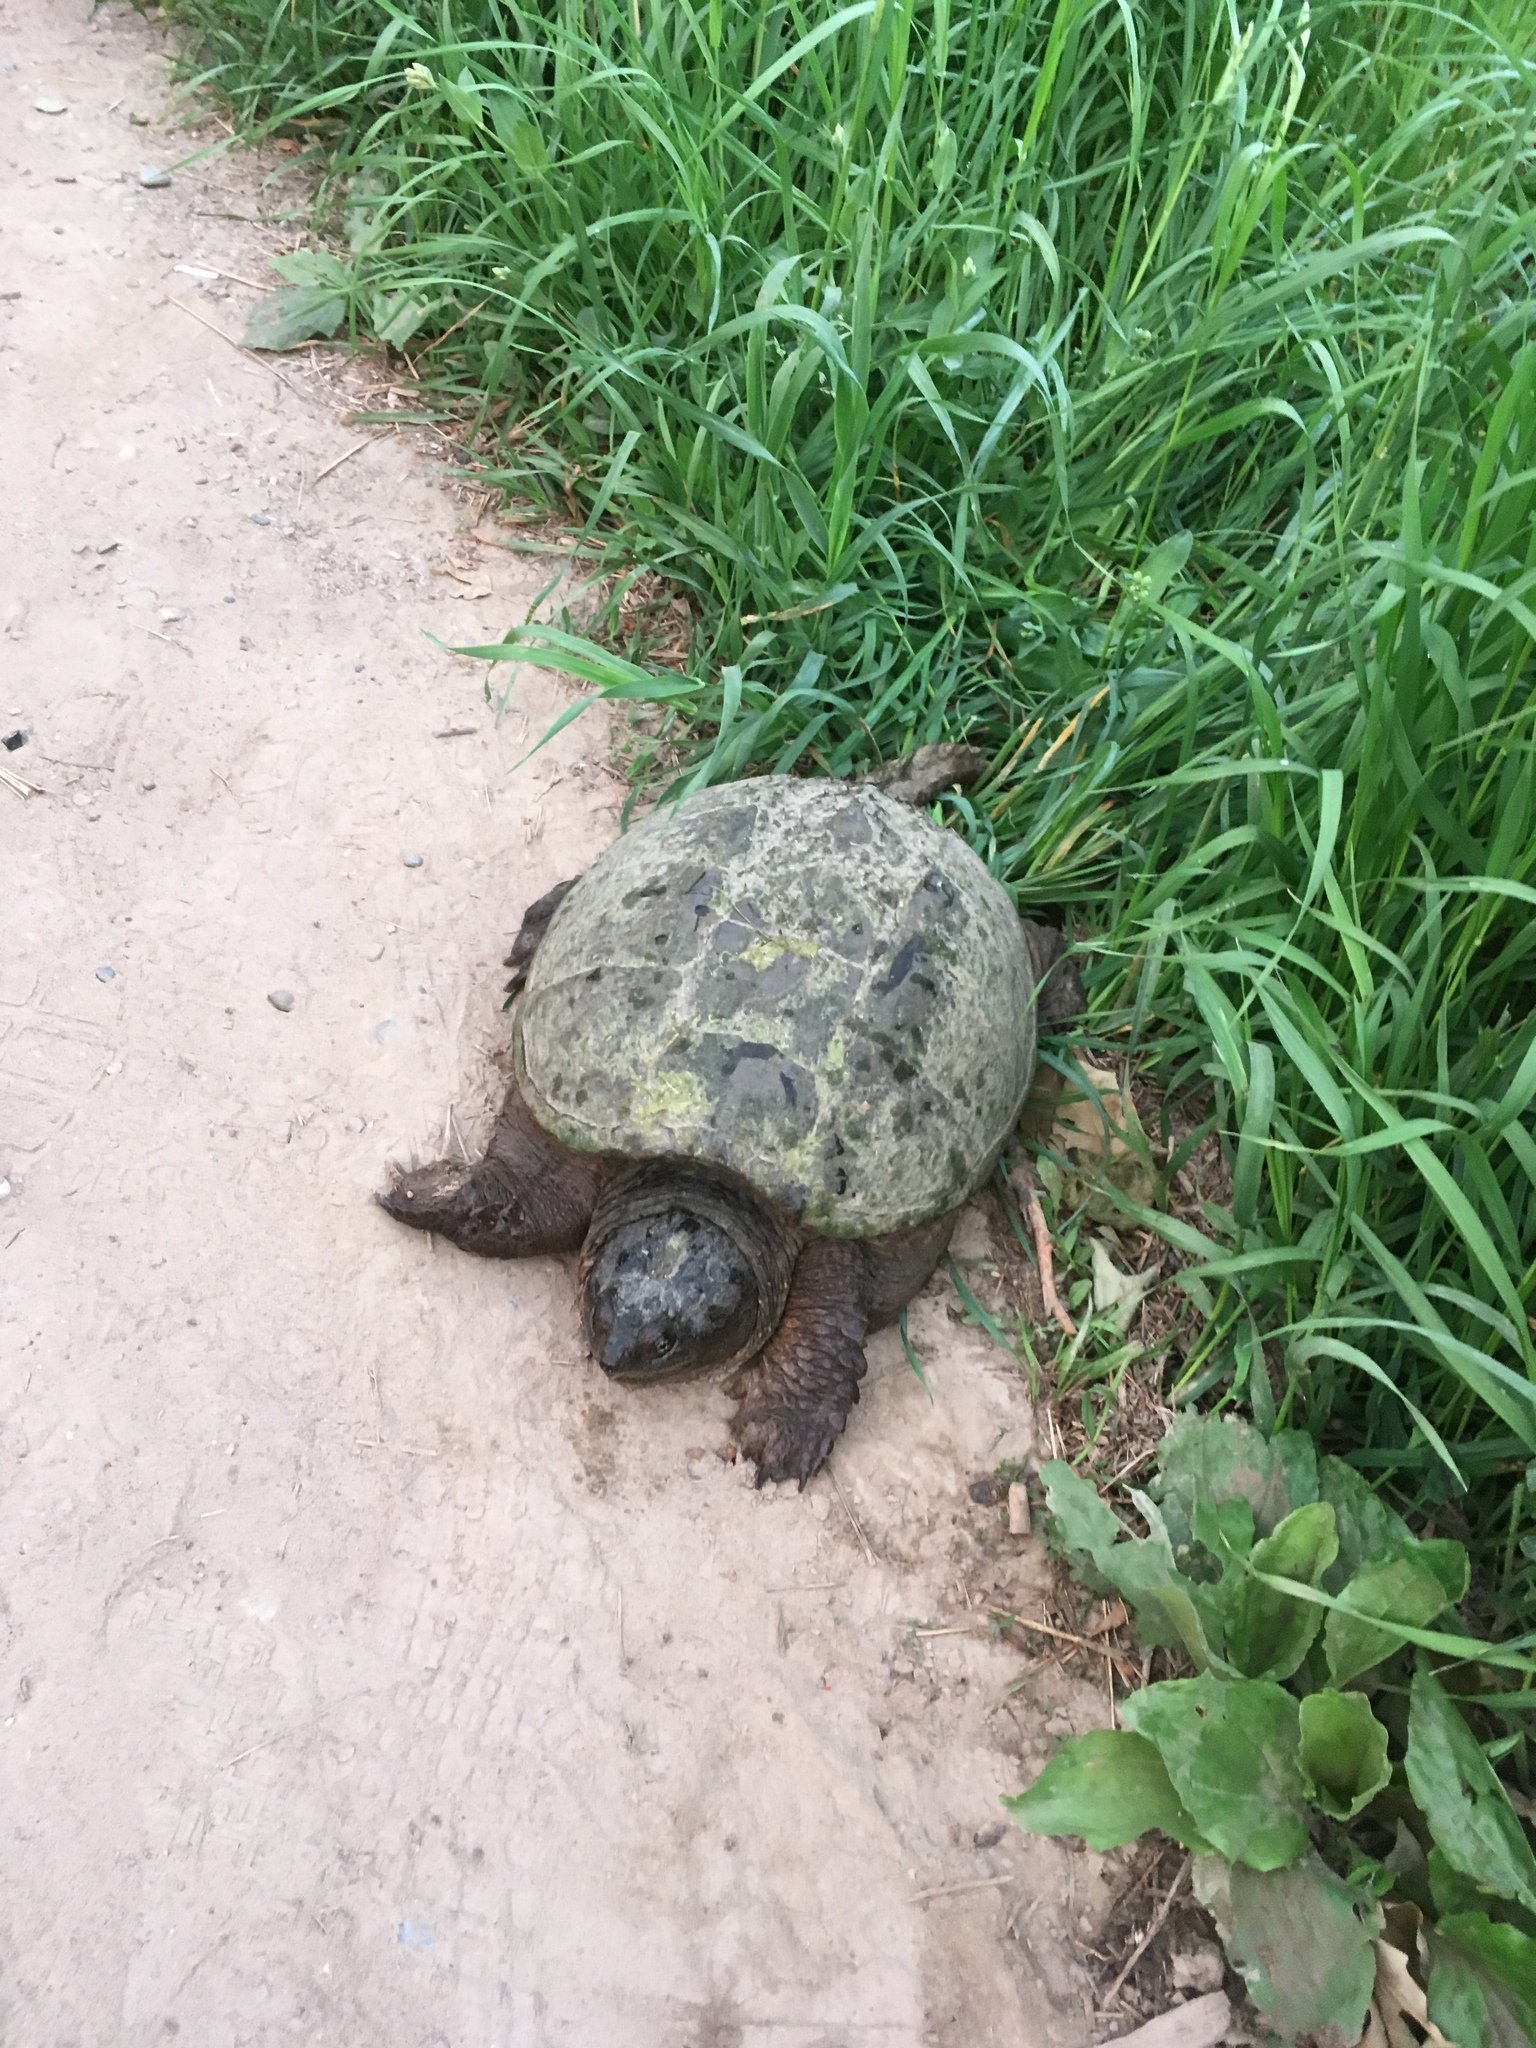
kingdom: Animalia
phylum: Chordata
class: Testudines
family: Chelydridae
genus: Chelydra
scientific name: Chelydra serpentina
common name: Common snapping turtle
